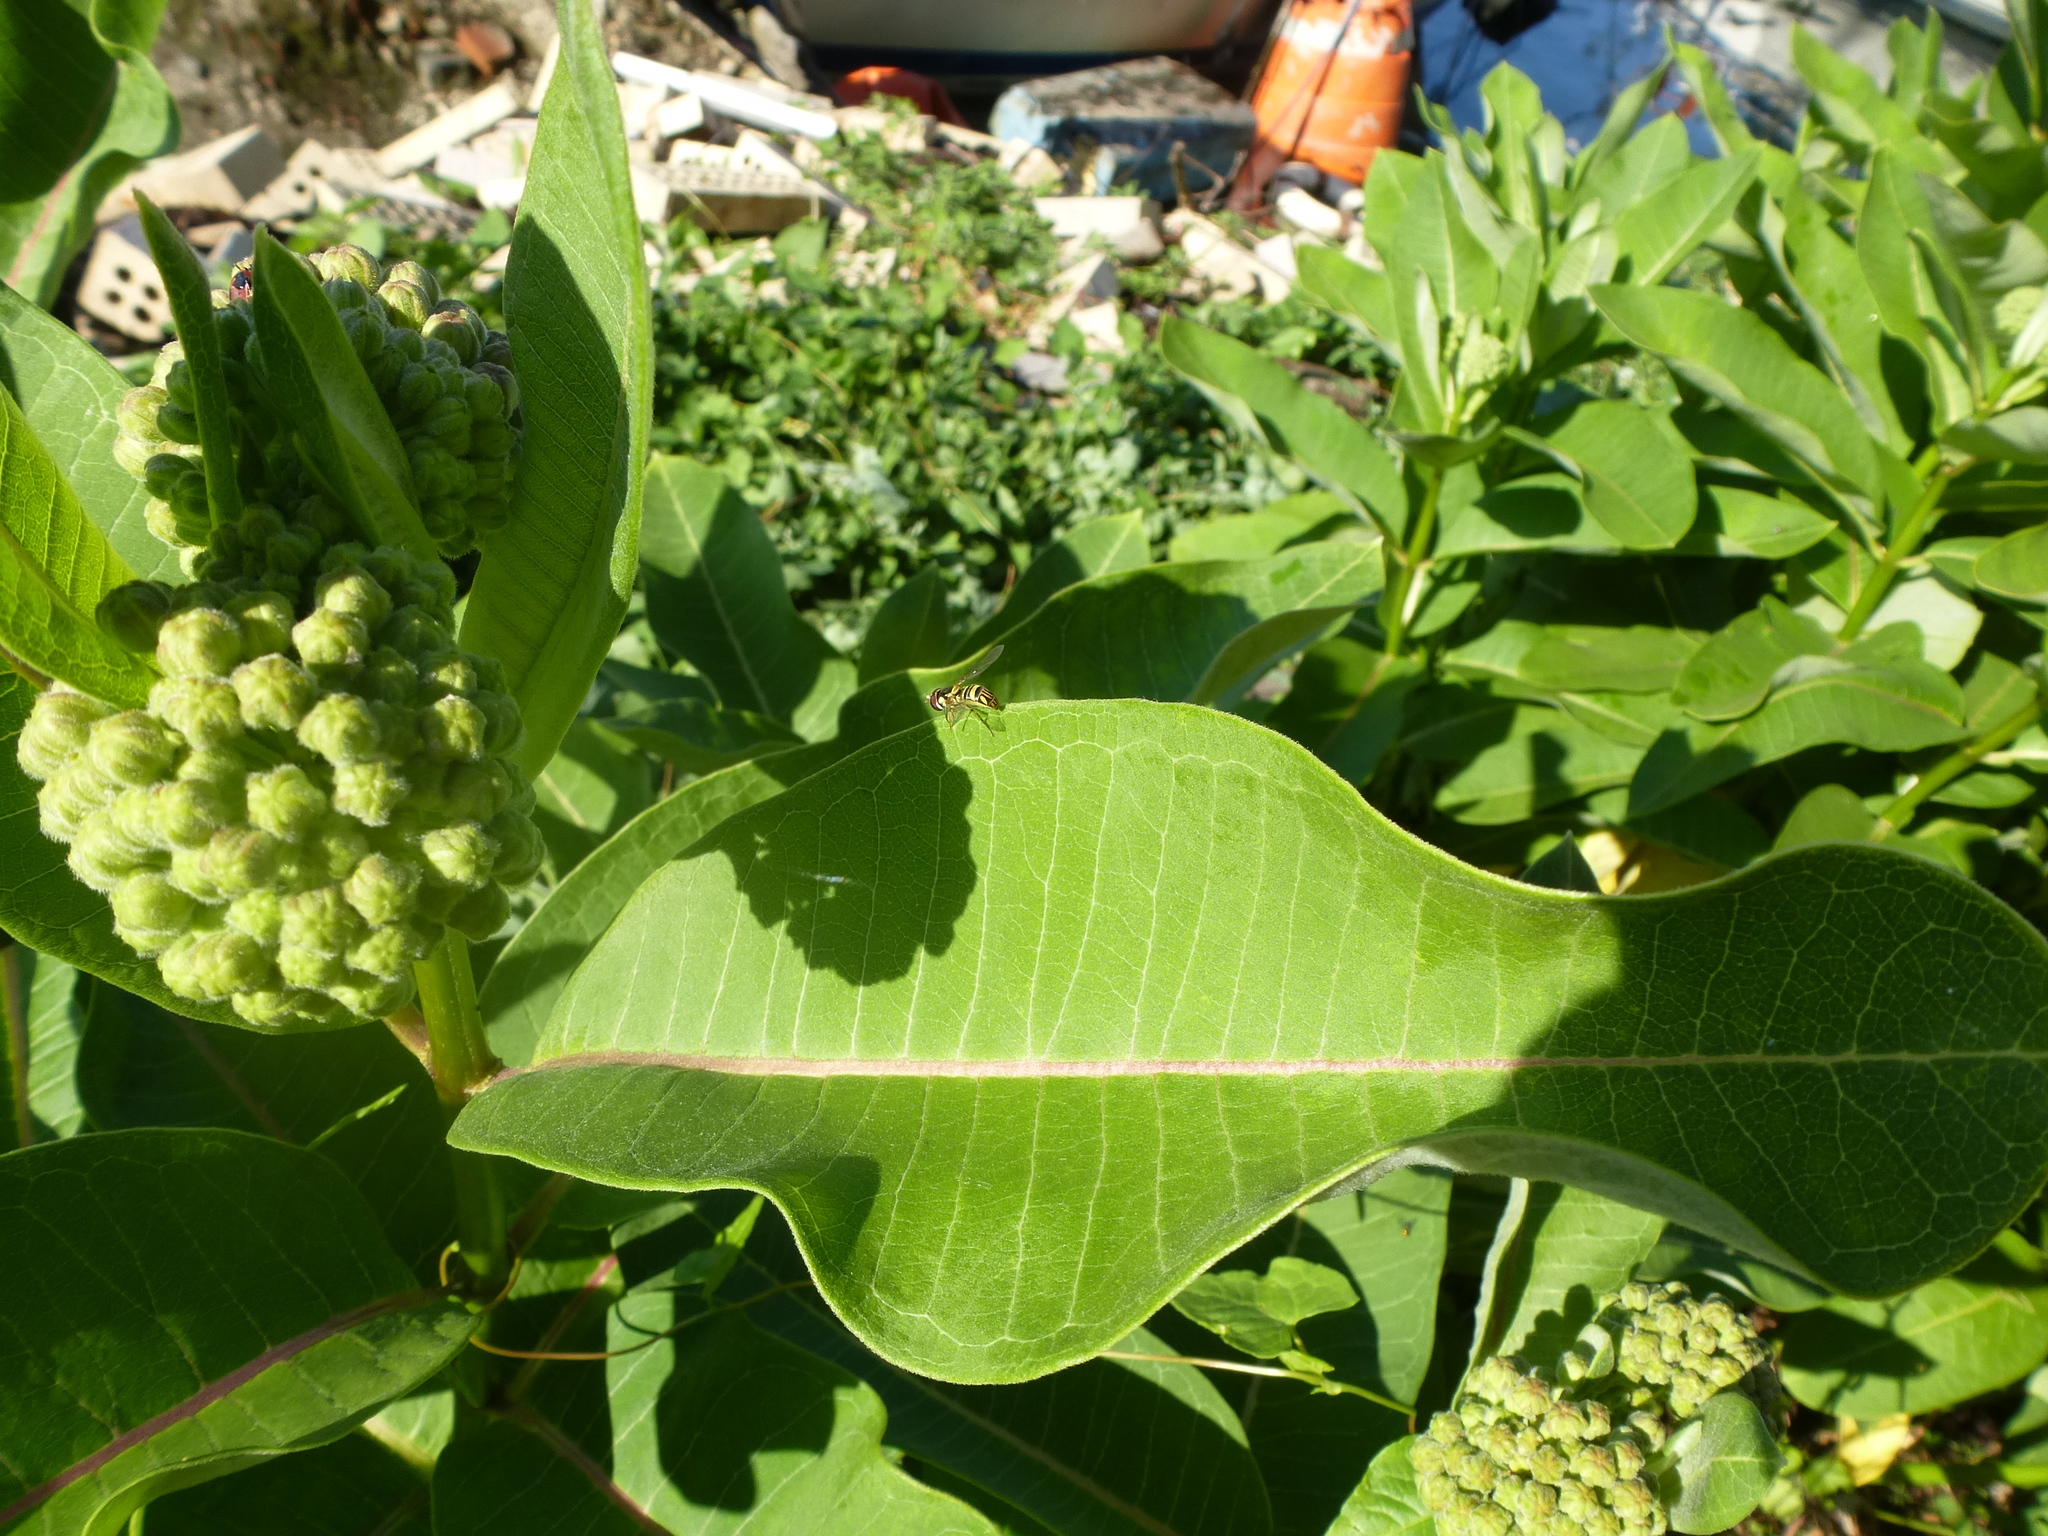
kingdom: Animalia
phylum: Arthropoda
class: Insecta
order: Diptera
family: Syrphidae
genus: Allograpta
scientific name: Allograpta obliqua
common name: Common oblique syrphid
